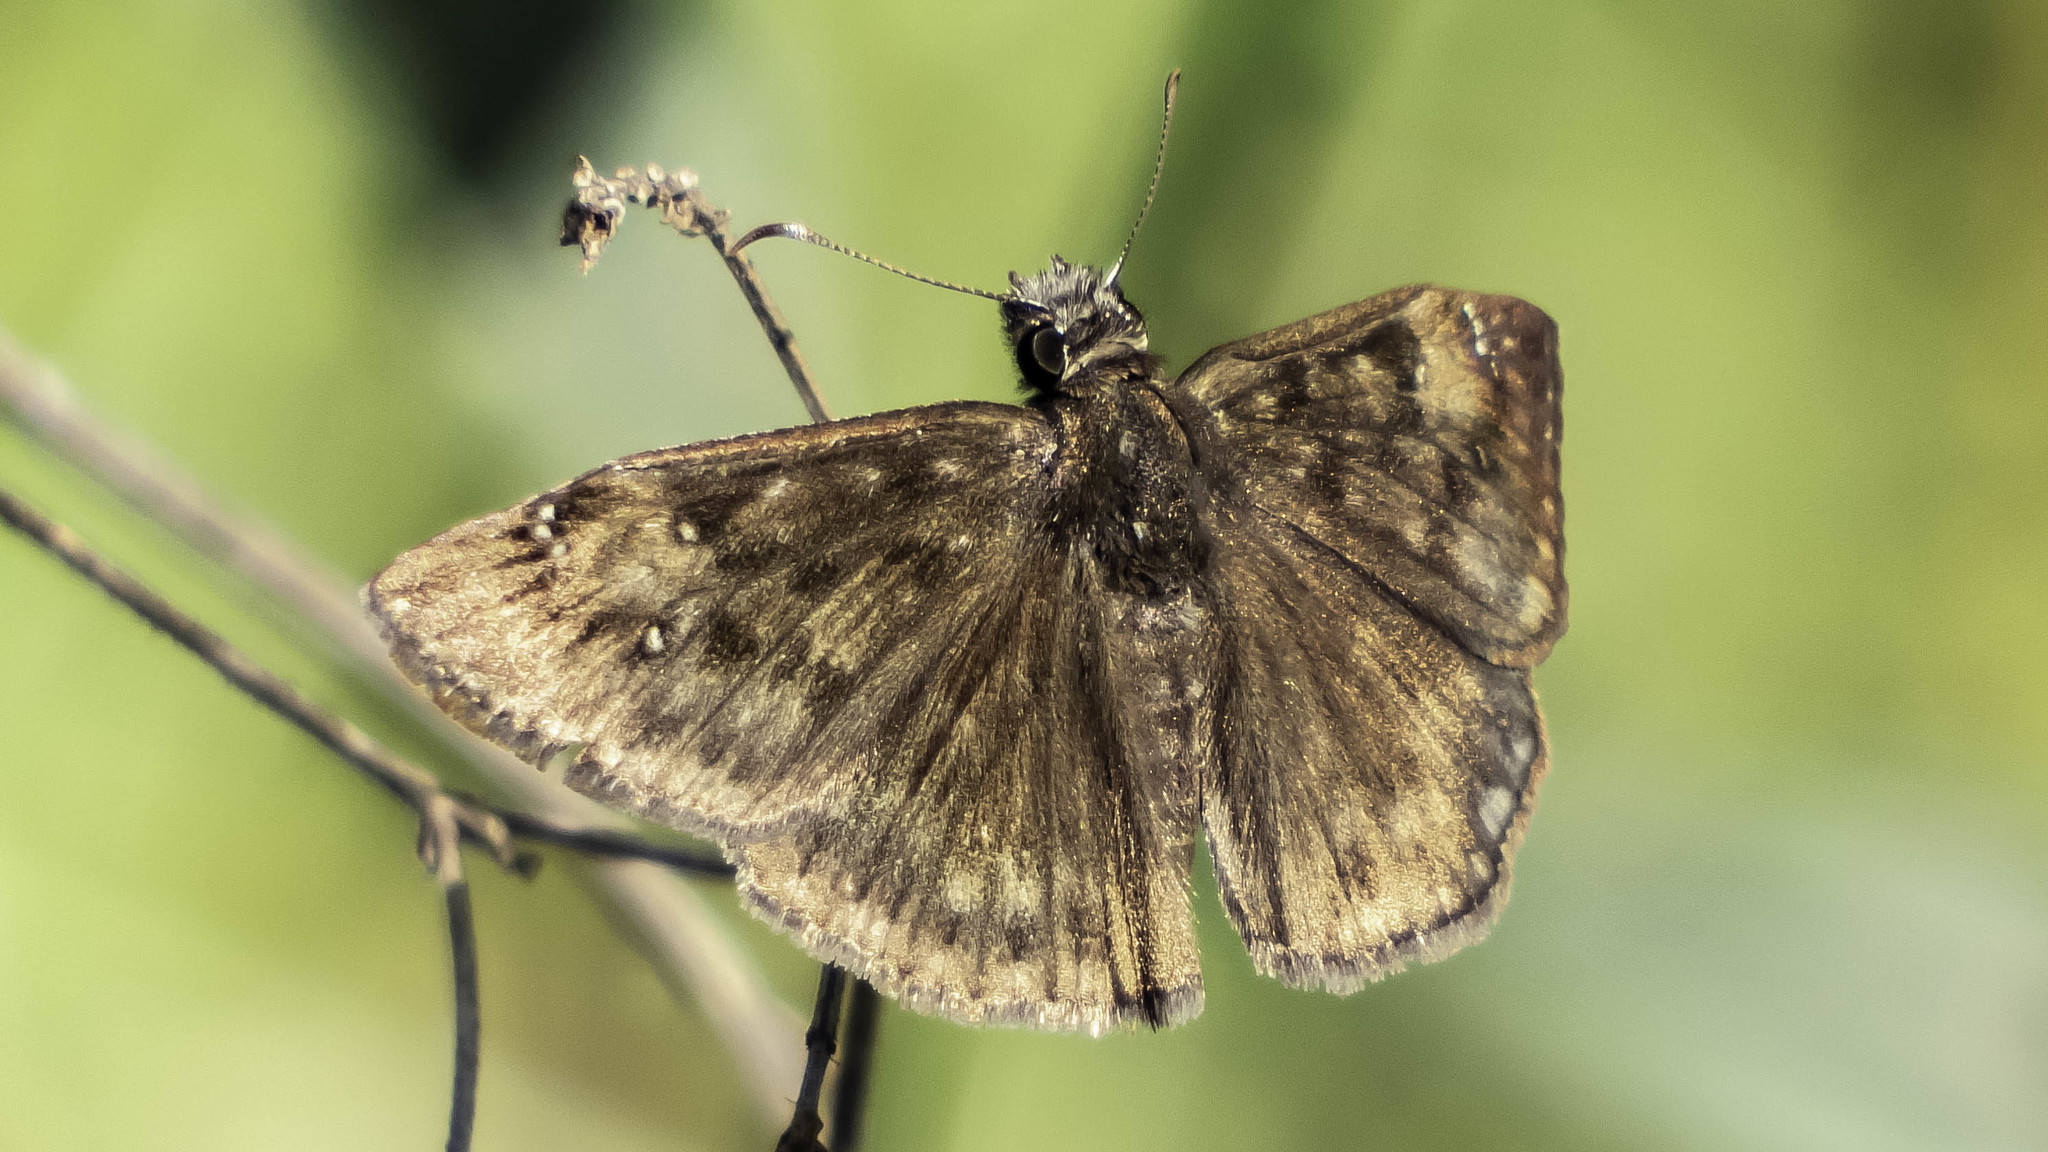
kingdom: Animalia
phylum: Arthropoda
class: Insecta
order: Lepidoptera
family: Hesperiidae
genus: Erynnis
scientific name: Erynnis horatius
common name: Horace's duskywing
